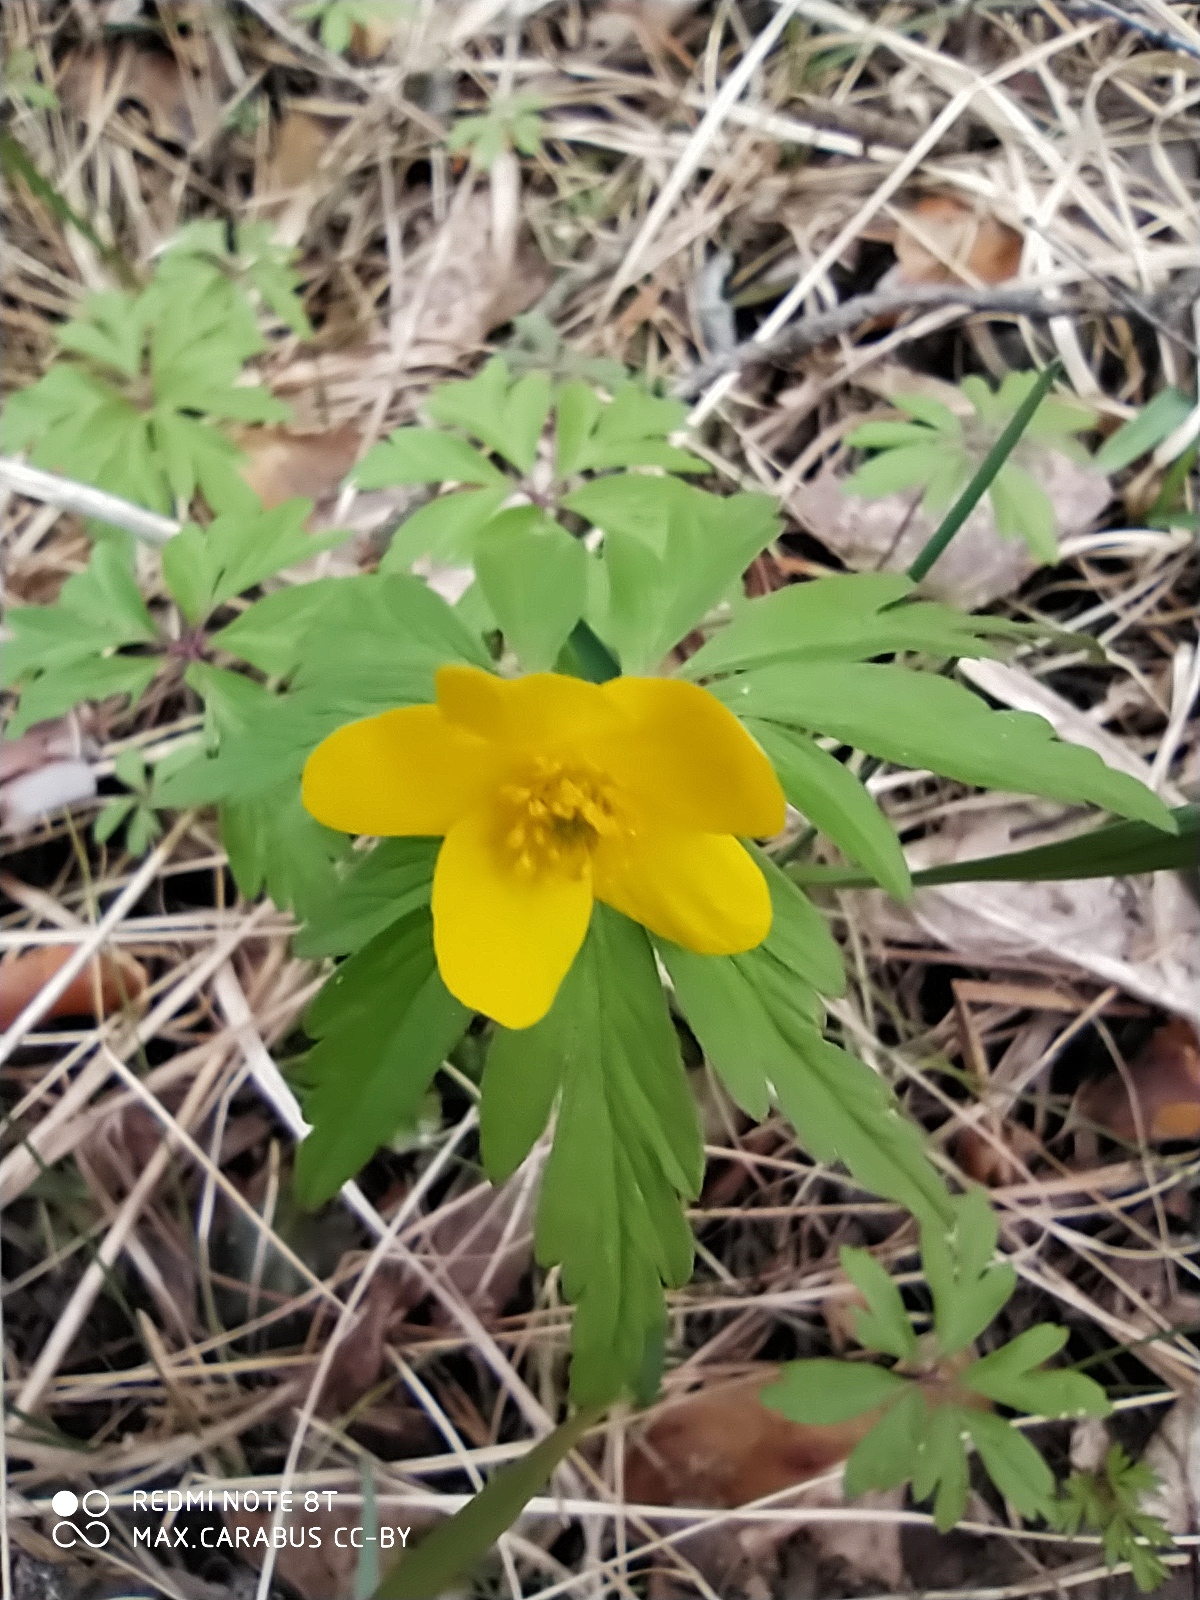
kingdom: Plantae
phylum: Tracheophyta
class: Magnoliopsida
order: Ranunculales
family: Ranunculaceae
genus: Anemone
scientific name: Anemone ranunculoides
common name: Yellow anemone
